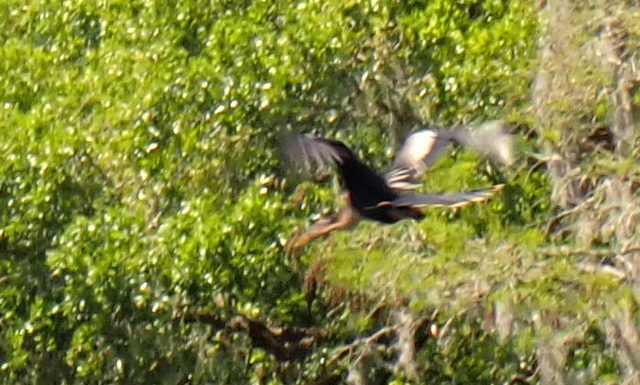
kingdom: Animalia
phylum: Chordata
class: Aves
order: Suliformes
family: Anhingidae
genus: Anhinga
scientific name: Anhinga anhinga
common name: Anhinga
